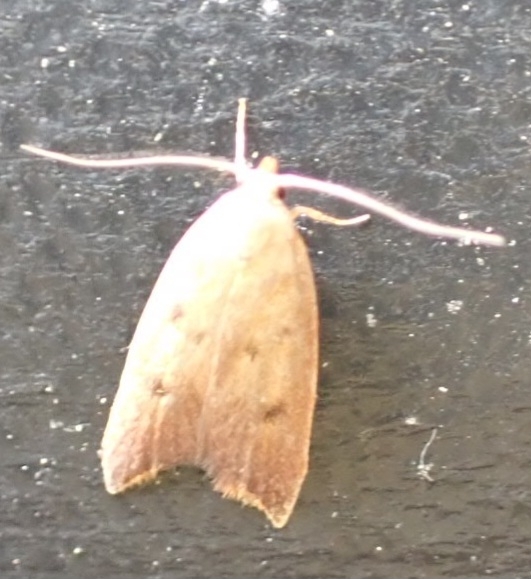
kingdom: Animalia
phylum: Arthropoda
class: Insecta
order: Lepidoptera
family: Oecophoridae
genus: Tachystola
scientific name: Tachystola acroxantha
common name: Ruddy streak
